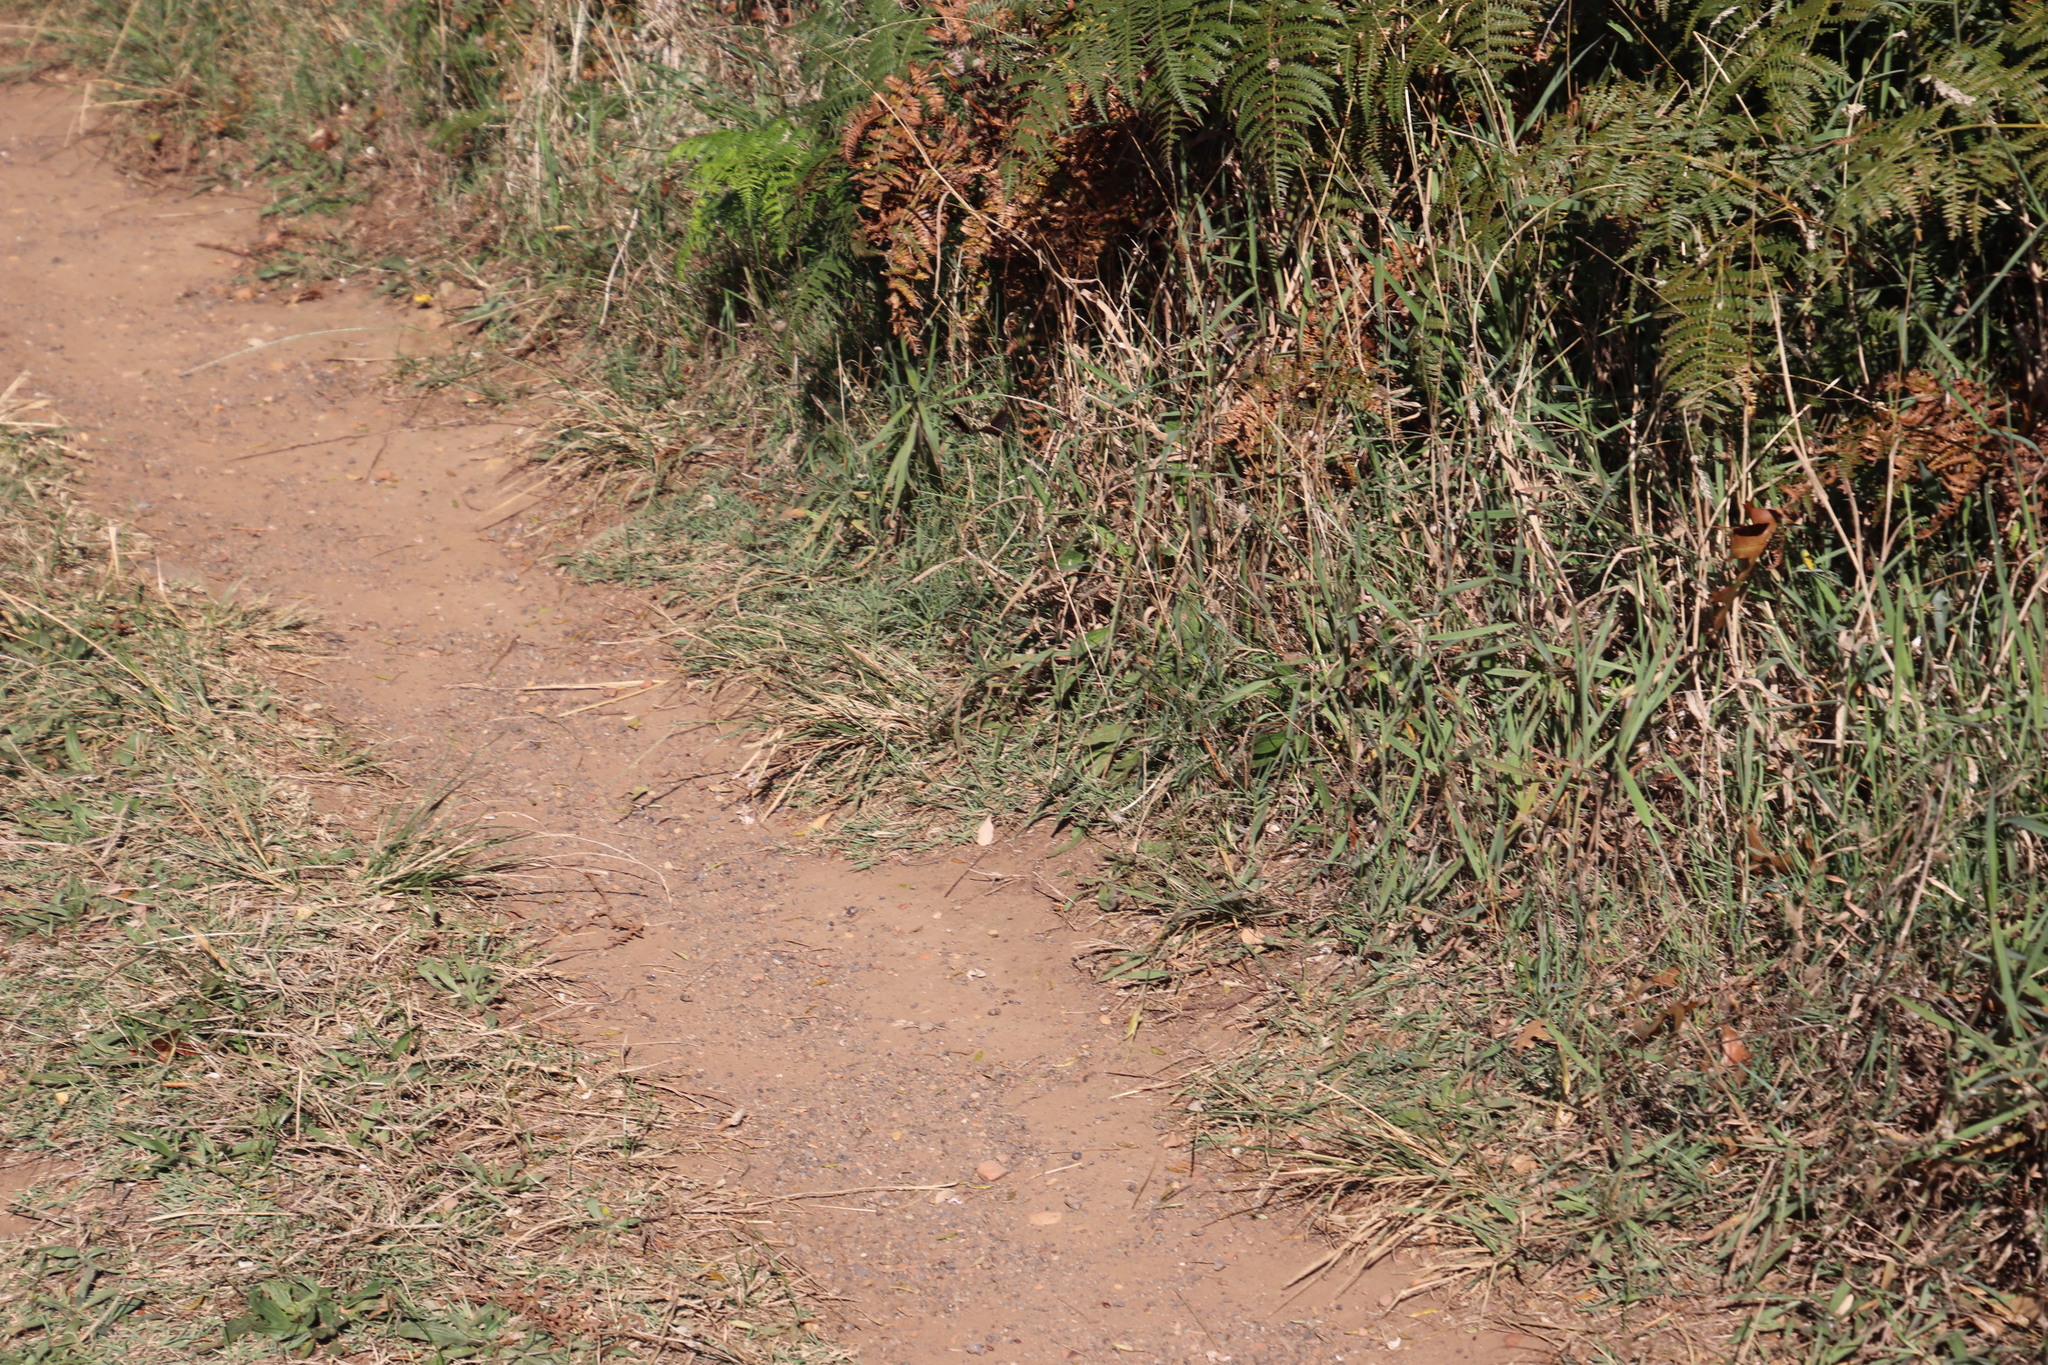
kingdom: Plantae
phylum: Tracheophyta
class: Liliopsida
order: Poales
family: Poaceae
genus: Cynodon
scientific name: Cynodon dactylon
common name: Bermuda grass
